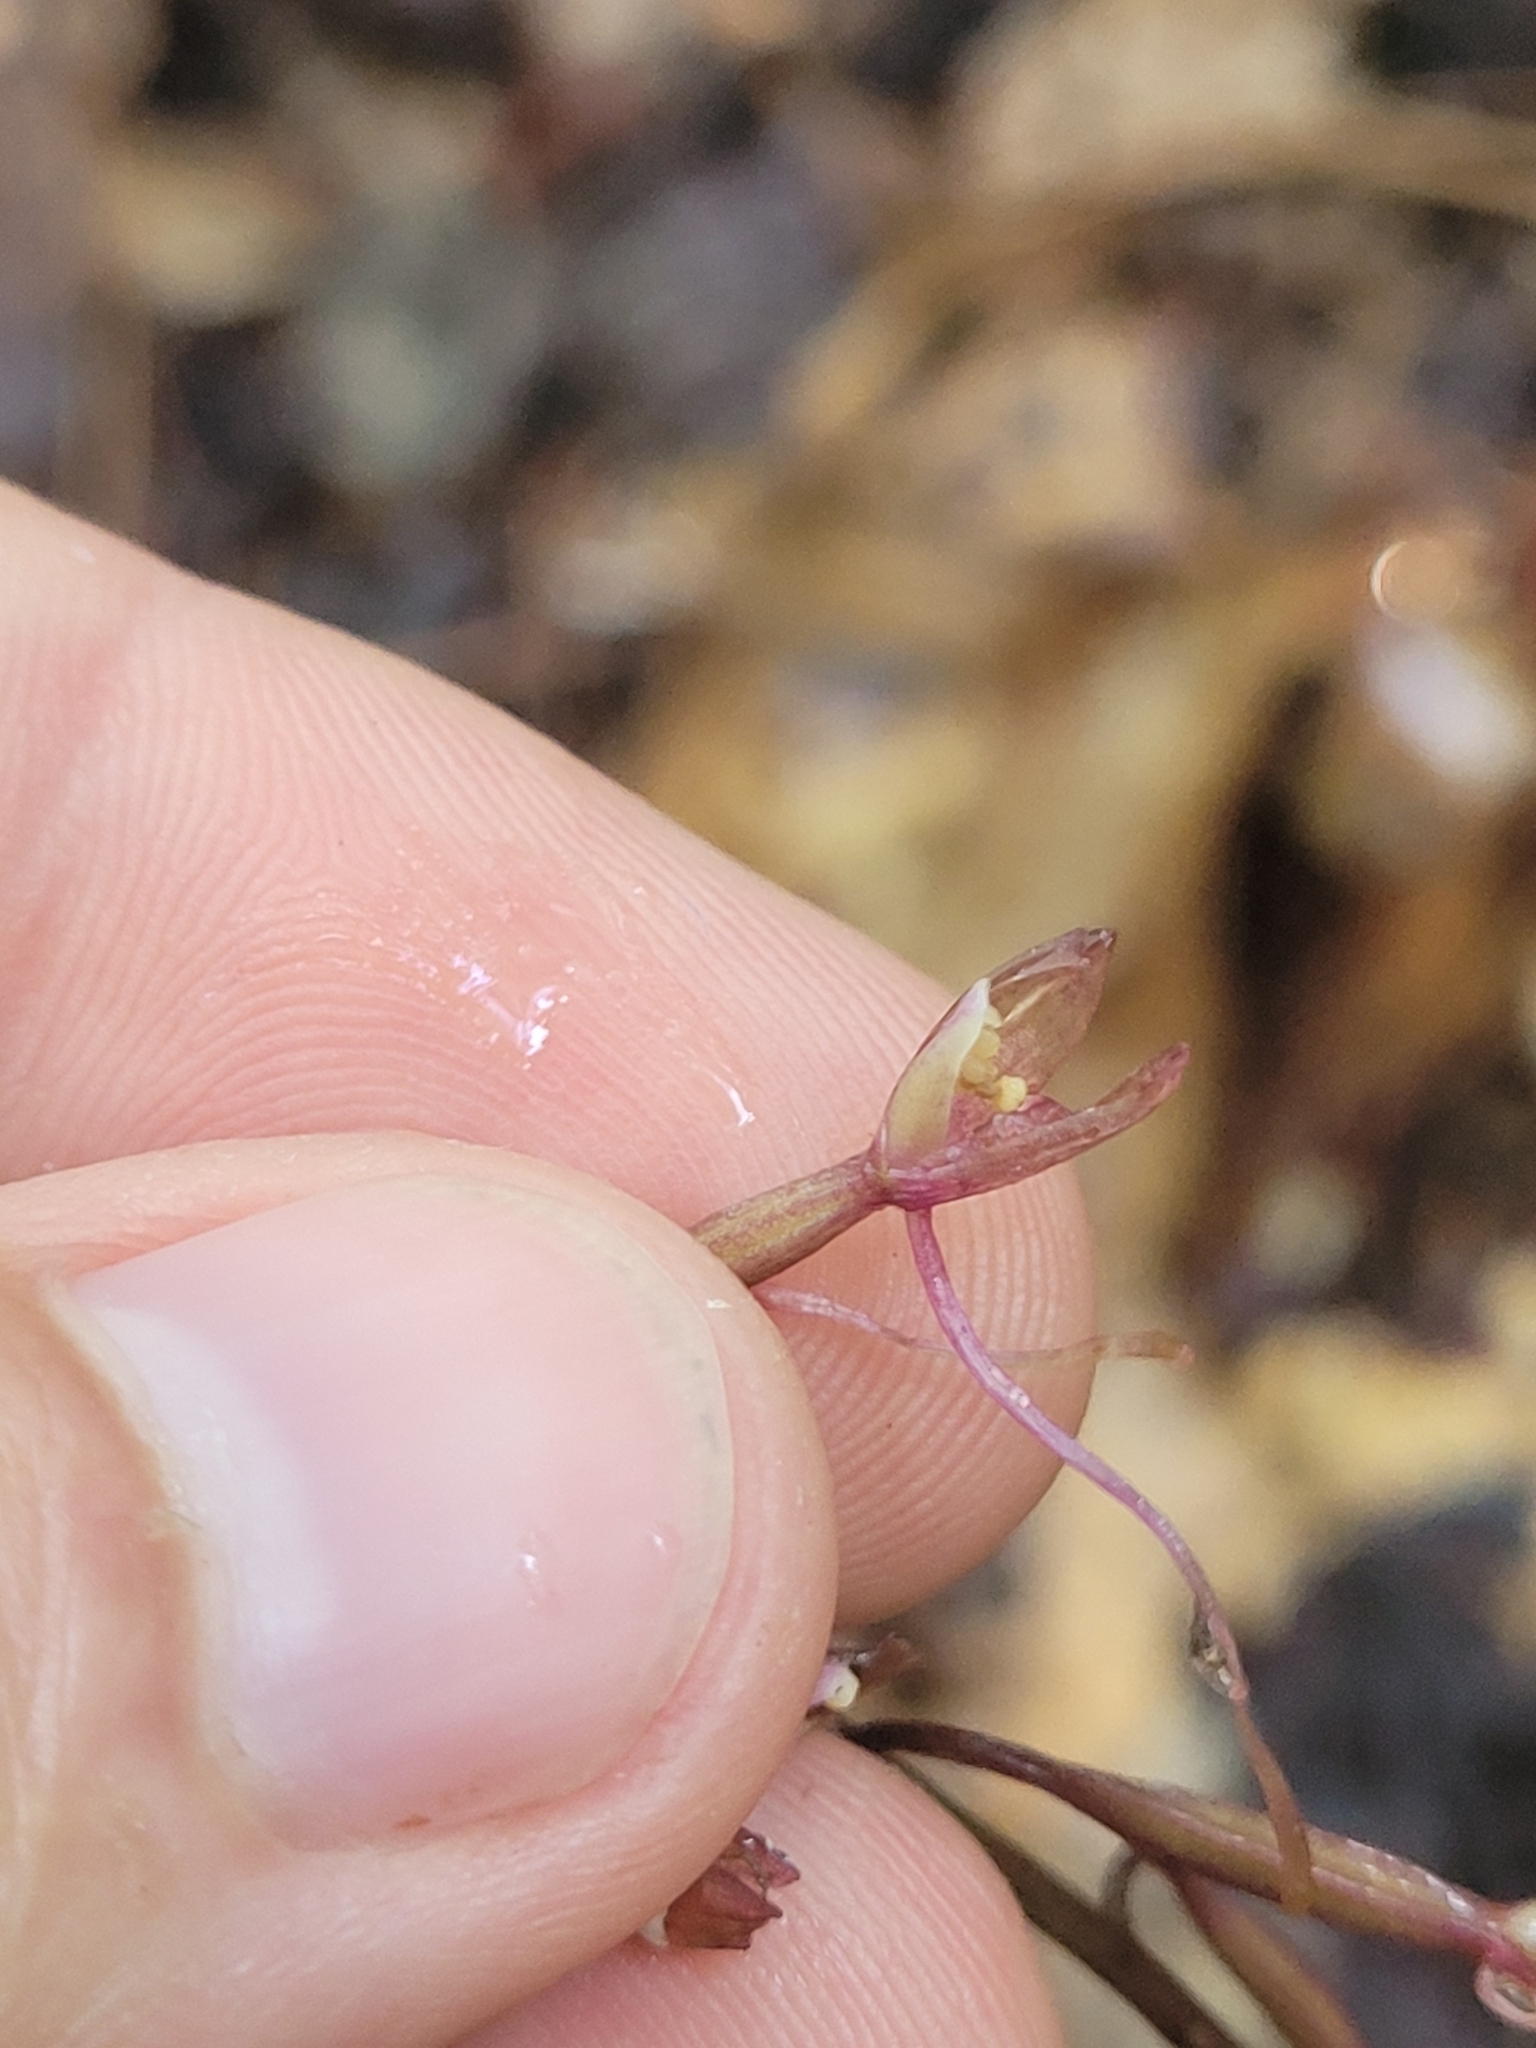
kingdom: Plantae
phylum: Tracheophyta
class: Liliopsida
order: Asparagales
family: Orchidaceae
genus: Tipularia
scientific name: Tipularia discolor
